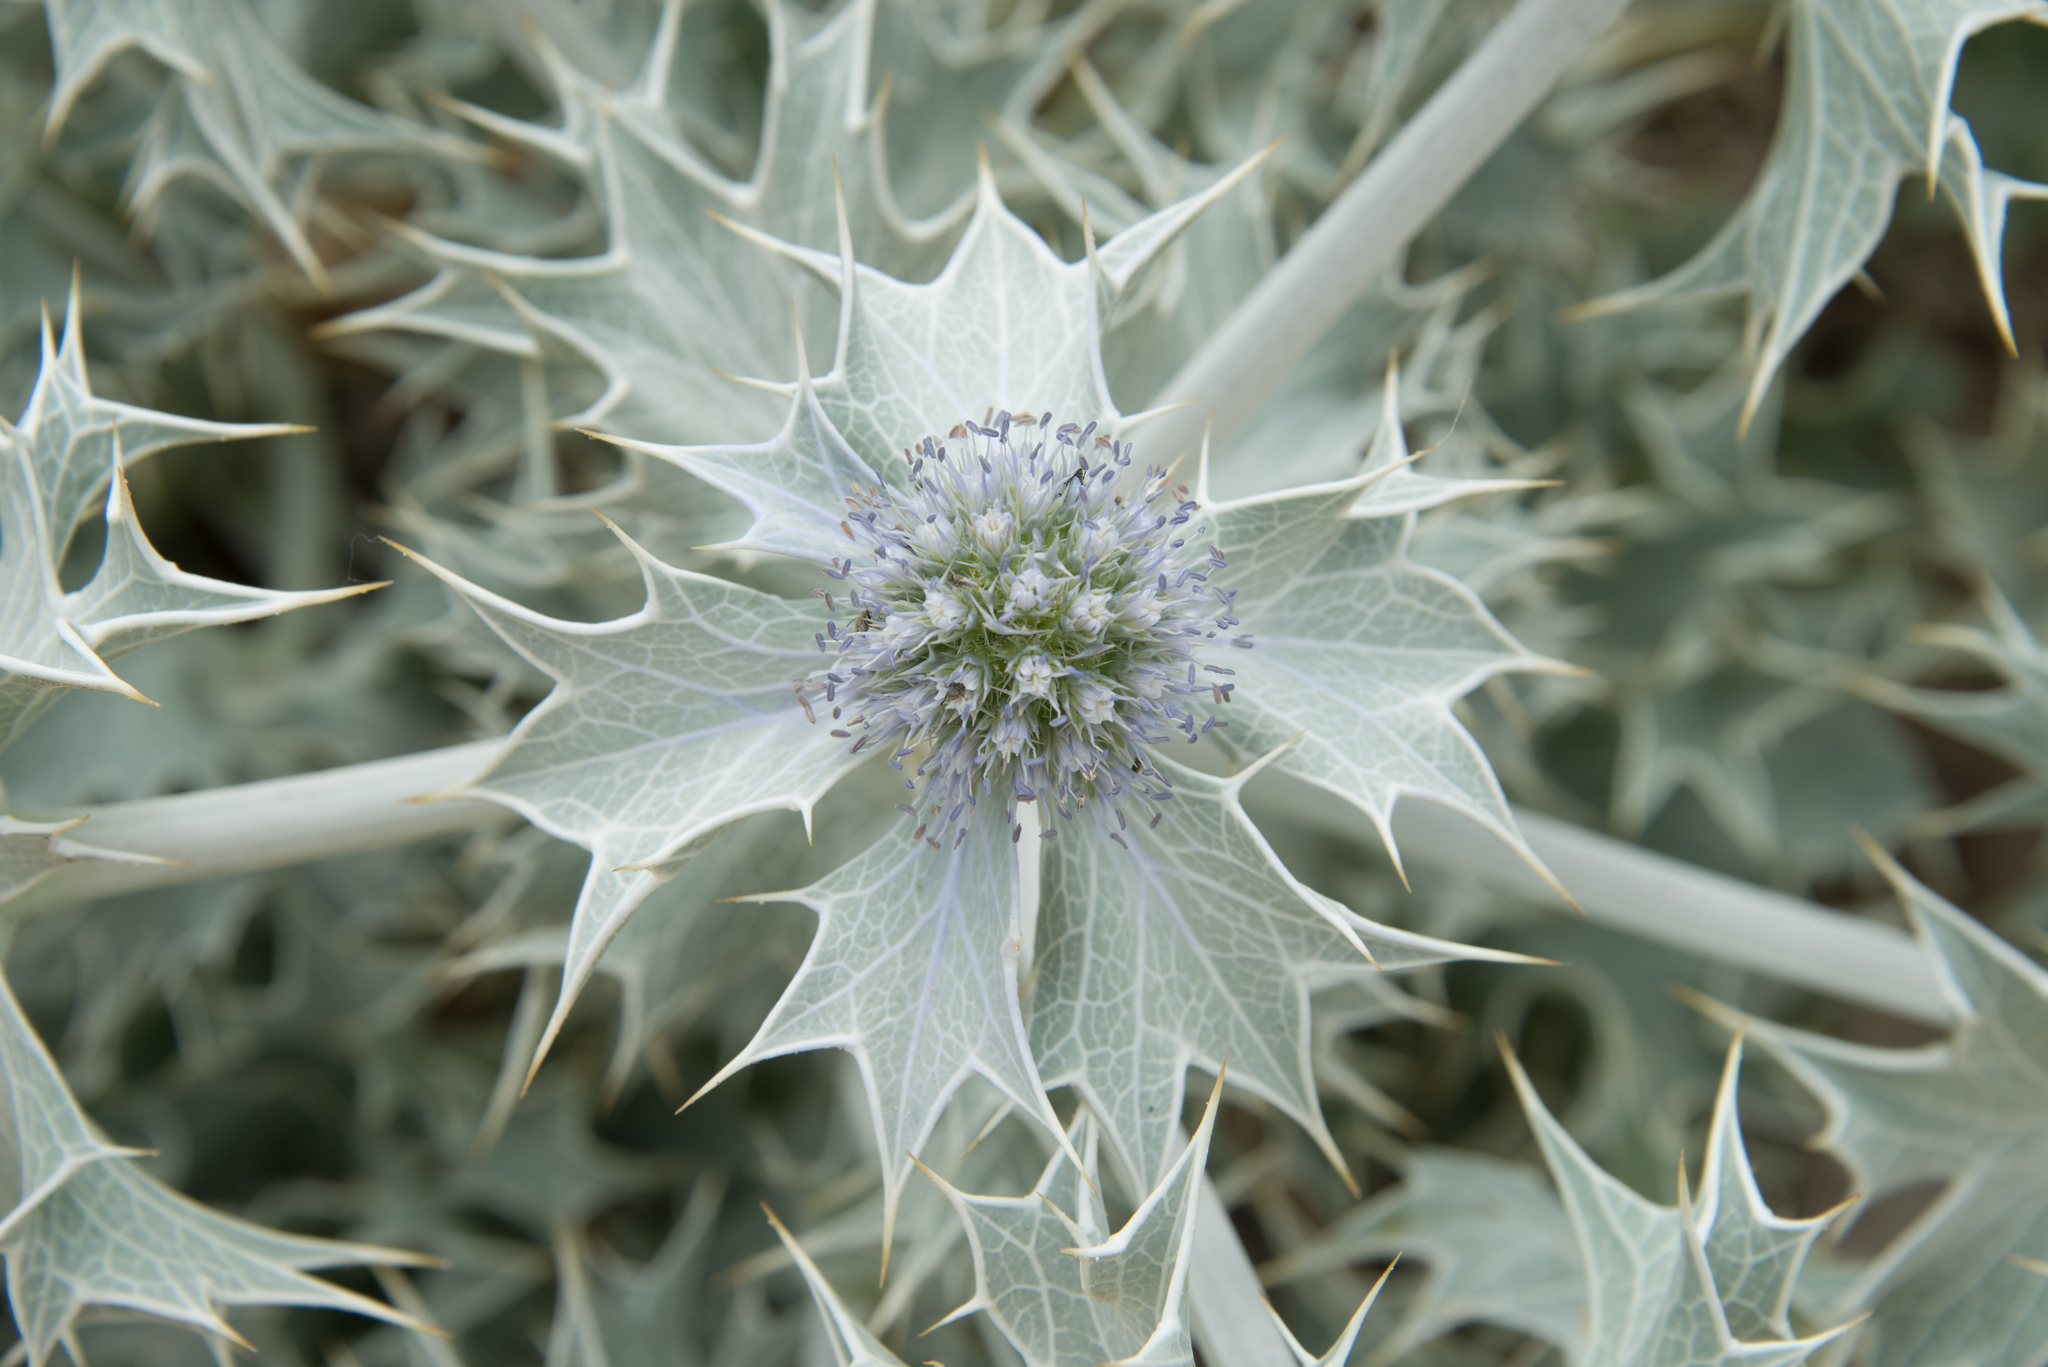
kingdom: Plantae
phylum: Tracheophyta
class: Magnoliopsida
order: Apiales
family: Apiaceae
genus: Eryngium
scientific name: Eryngium maritimum
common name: Sea-holly
